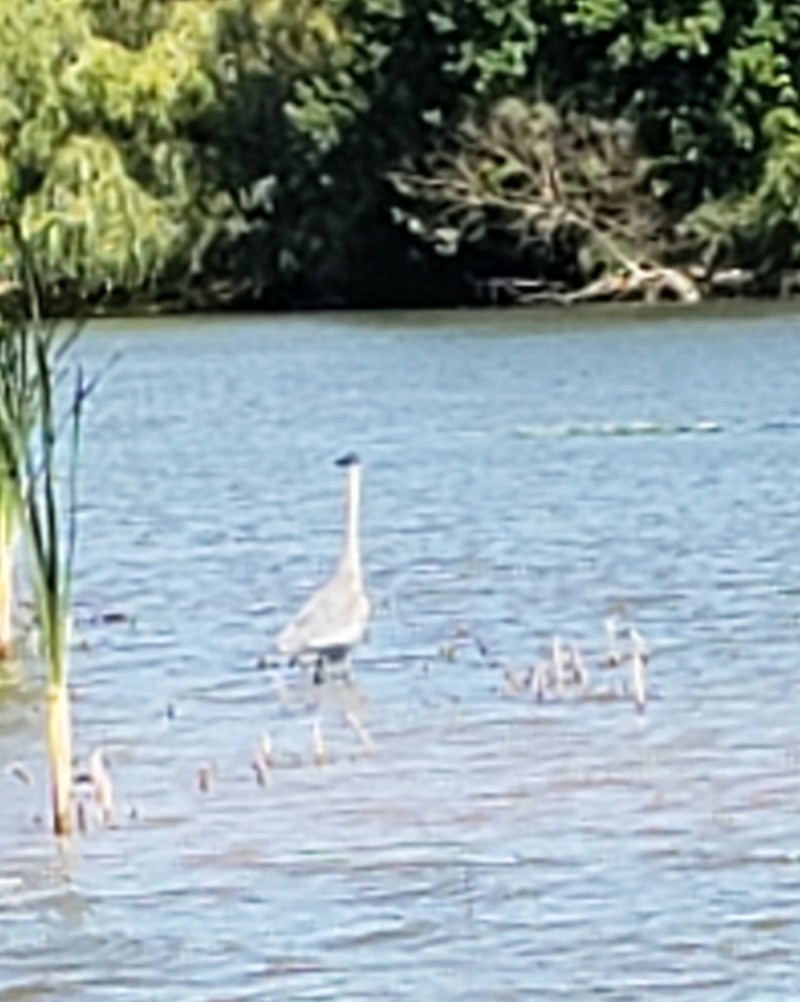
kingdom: Animalia
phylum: Chordata
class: Aves
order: Pelecaniformes
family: Ardeidae
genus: Ardea
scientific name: Ardea herodias
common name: Great blue heron
